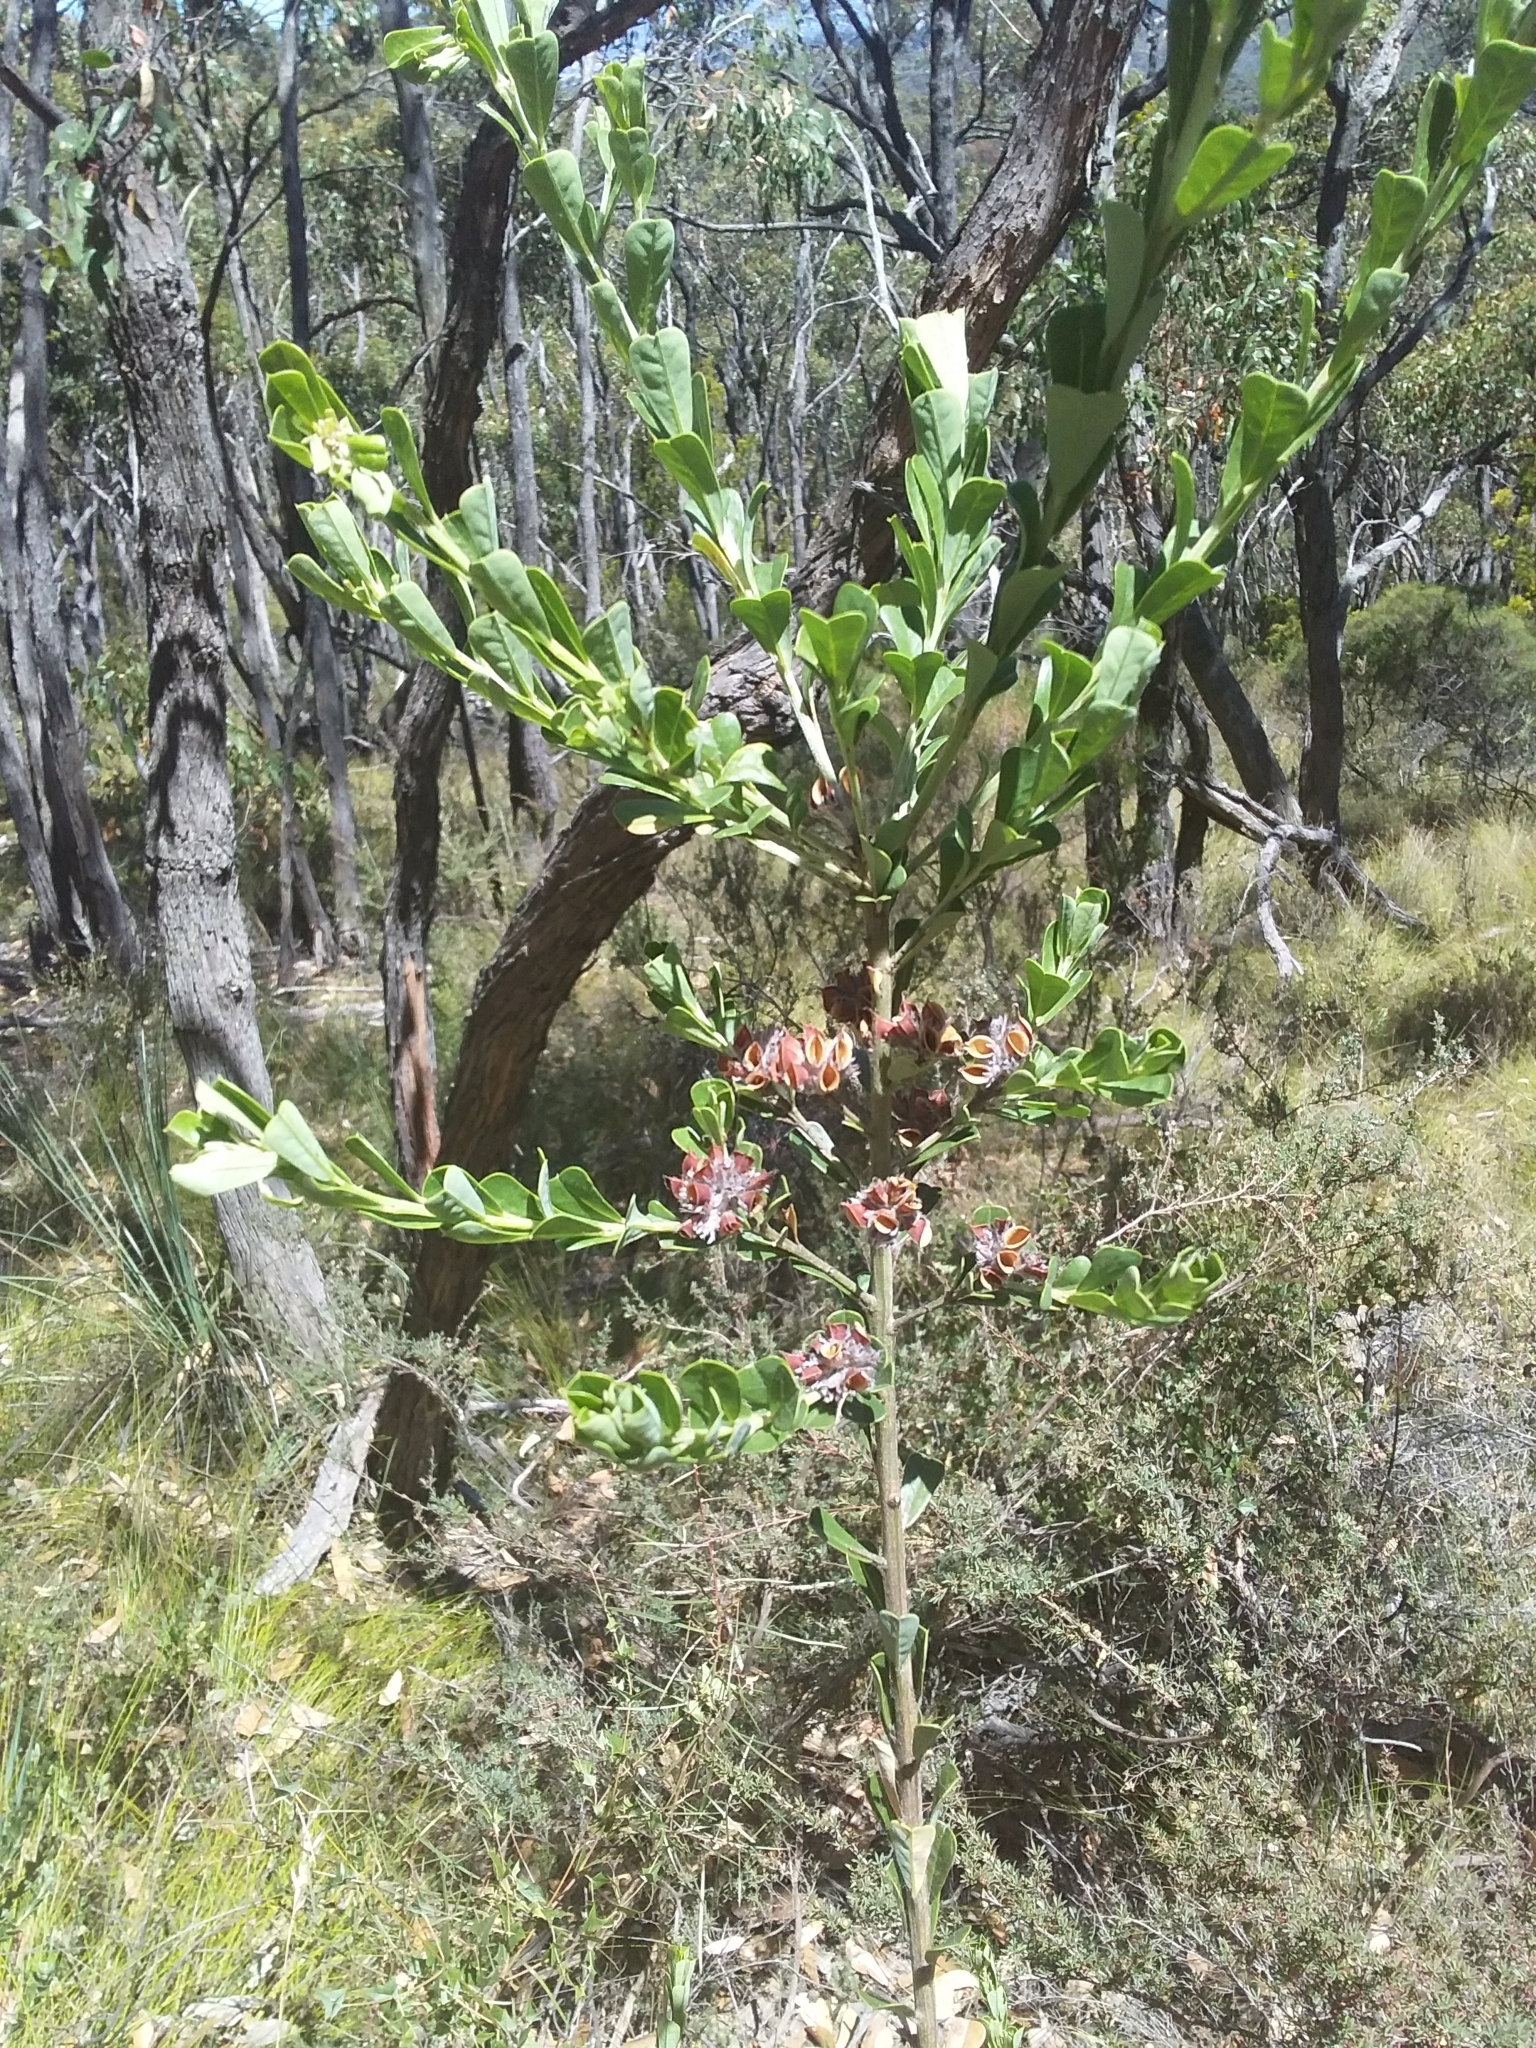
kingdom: Plantae
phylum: Tracheophyta
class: Magnoliopsida
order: Fabales
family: Fabaceae
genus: Pultenaea
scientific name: Pultenaea daphnoides
